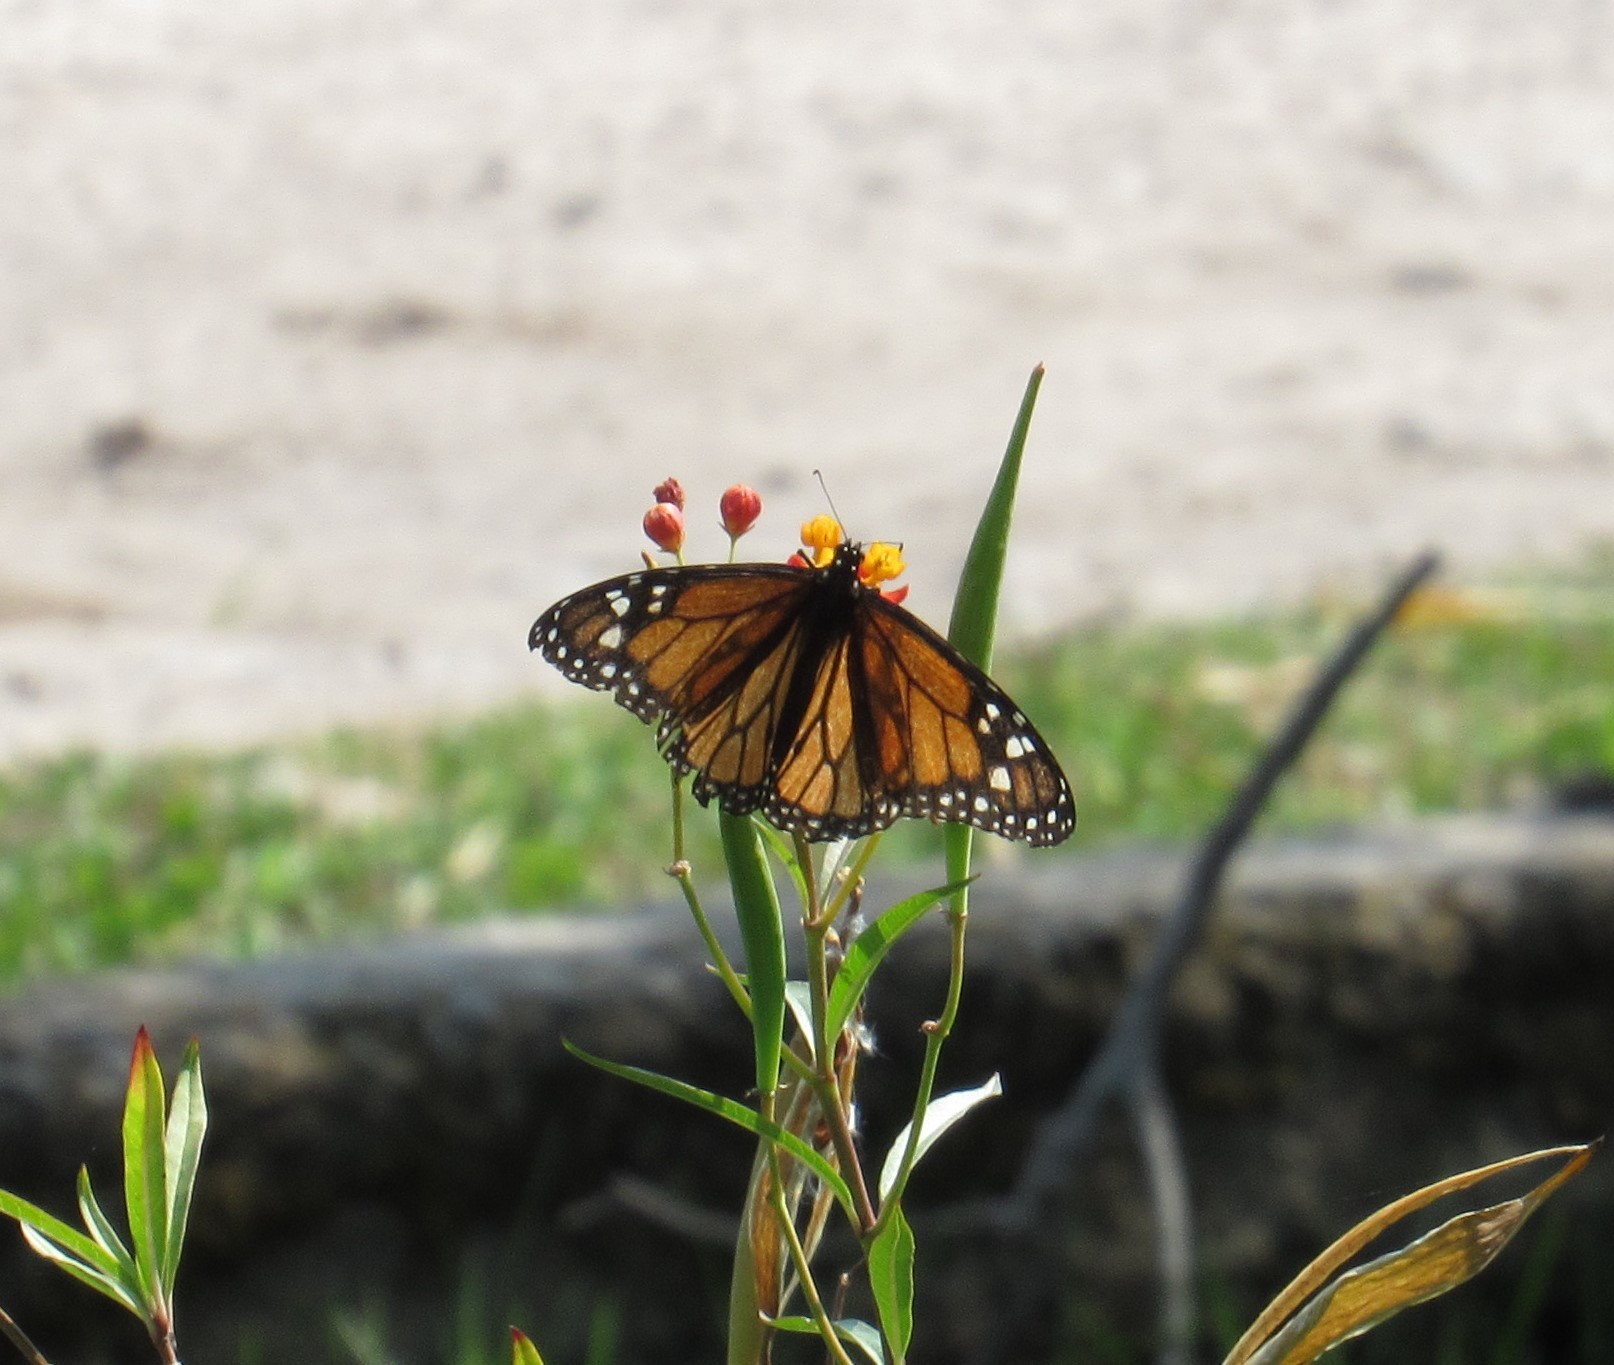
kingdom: Animalia
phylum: Arthropoda
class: Insecta
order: Lepidoptera
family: Nymphalidae
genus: Danaus
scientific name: Danaus plexippus
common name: Monarch
